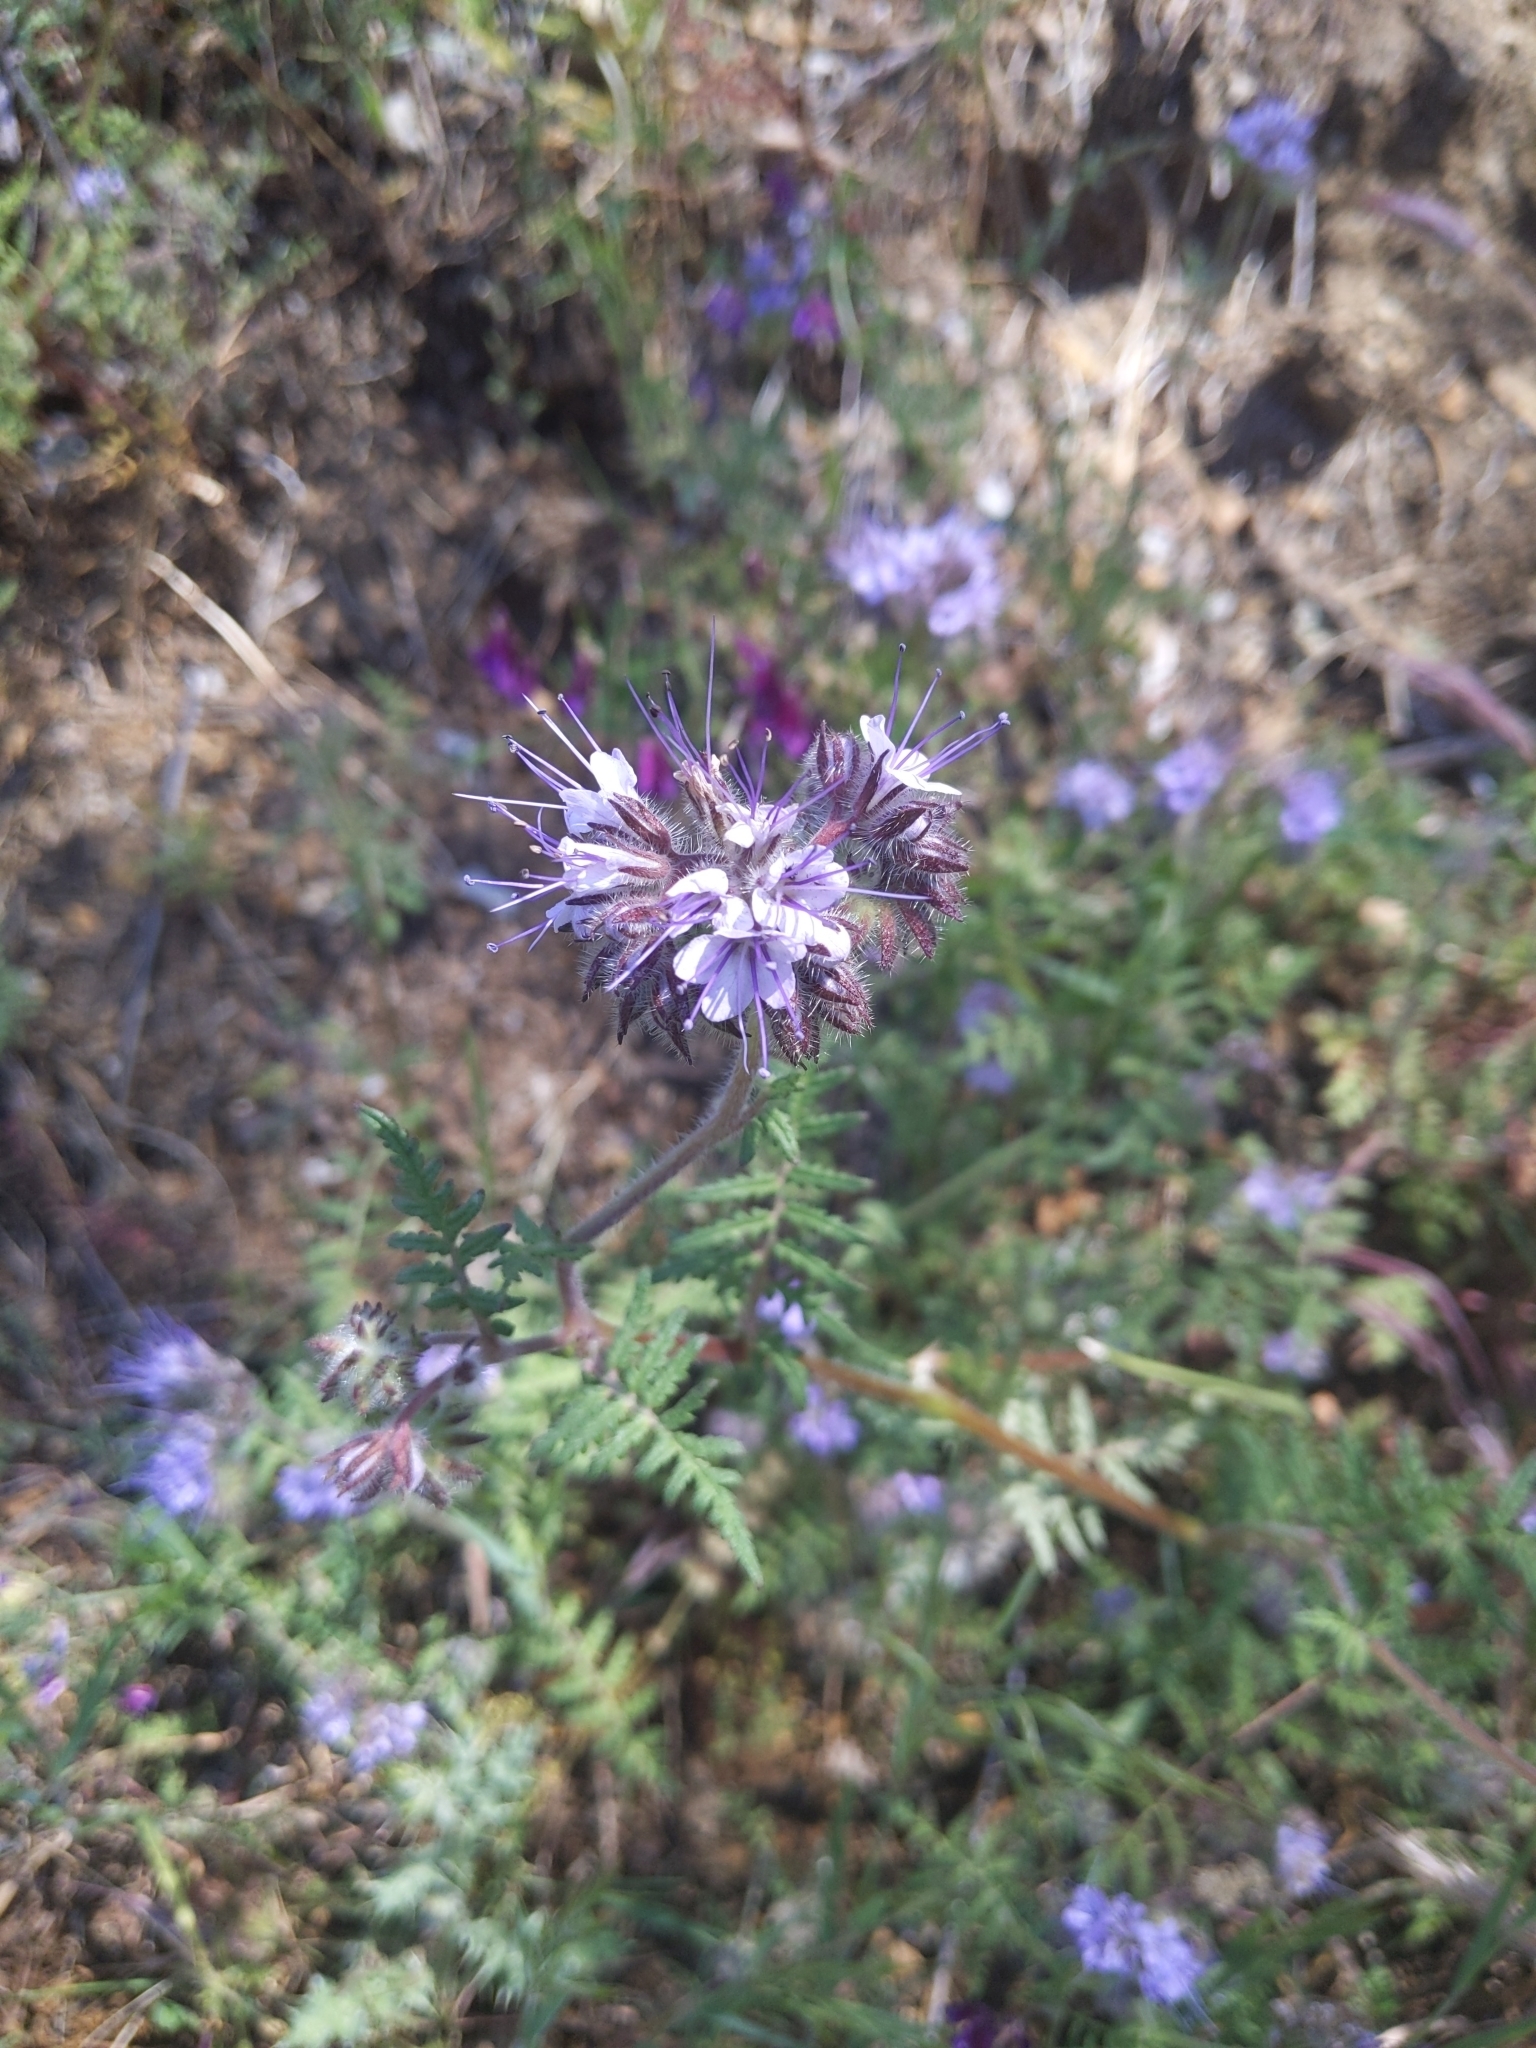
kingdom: Plantae
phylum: Tracheophyta
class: Magnoliopsida
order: Boraginales
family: Hydrophyllaceae
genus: Phacelia
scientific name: Phacelia tanacetifolia
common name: Phacelia
